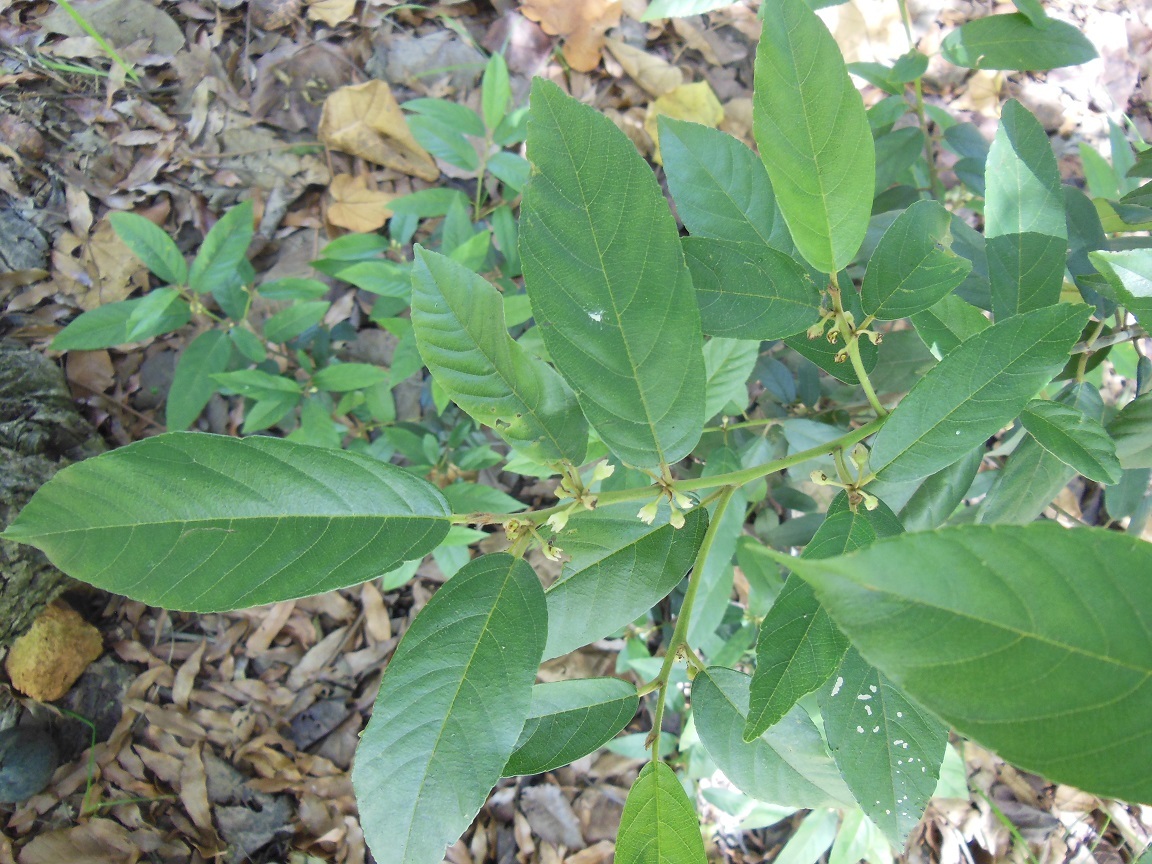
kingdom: Plantae
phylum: Tracheophyta
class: Magnoliopsida
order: Rosales
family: Rhamnaceae
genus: Frangula
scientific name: Frangula mucronata
